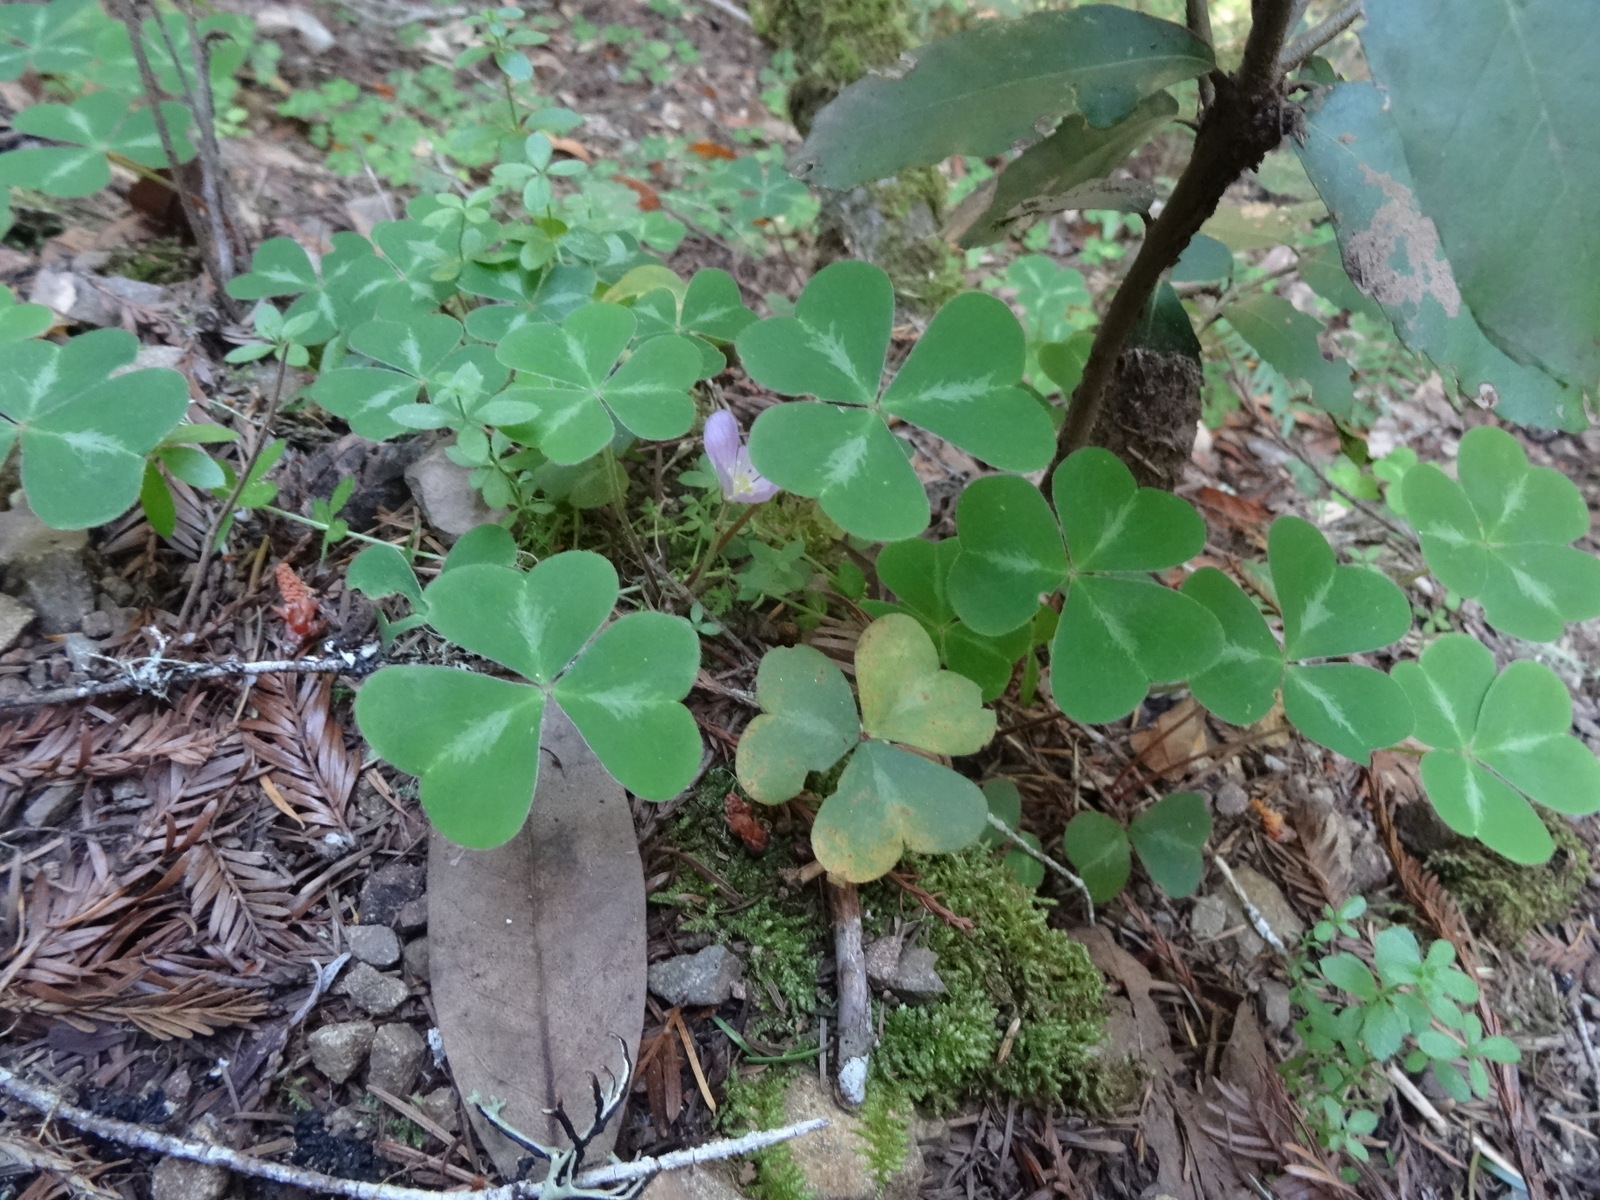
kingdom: Plantae
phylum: Tracheophyta
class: Magnoliopsida
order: Oxalidales
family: Oxalidaceae
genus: Oxalis
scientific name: Oxalis oregana
